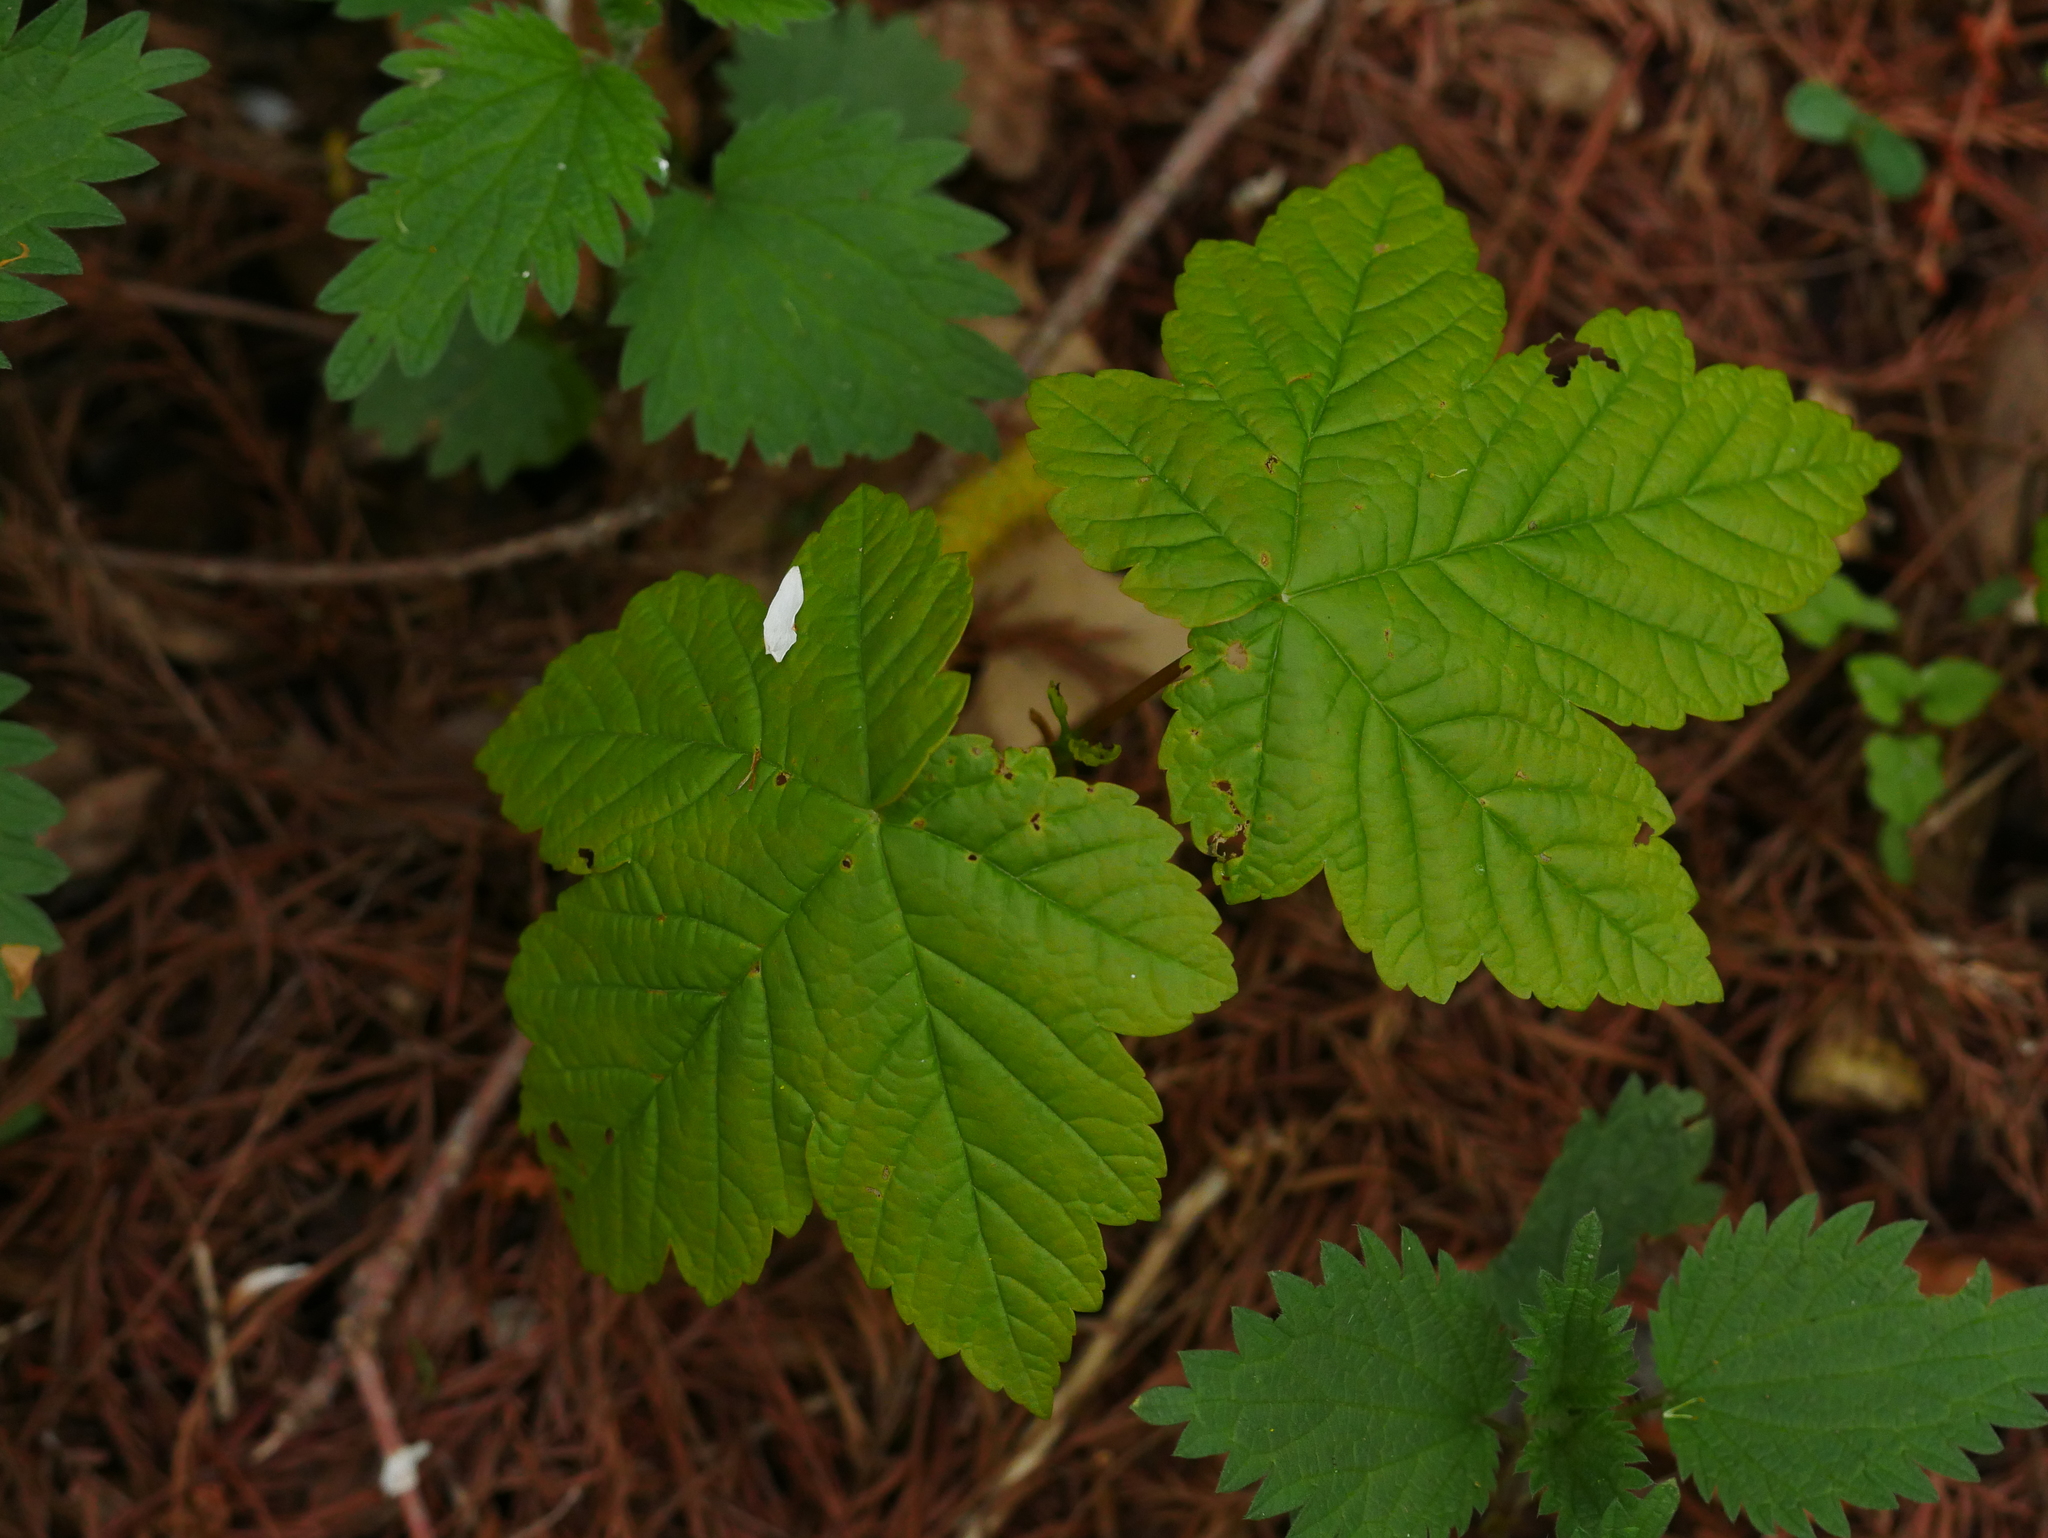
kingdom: Plantae
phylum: Tracheophyta
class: Magnoliopsida
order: Sapindales
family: Sapindaceae
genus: Acer
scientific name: Acer pseudoplatanus
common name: Sycamore
